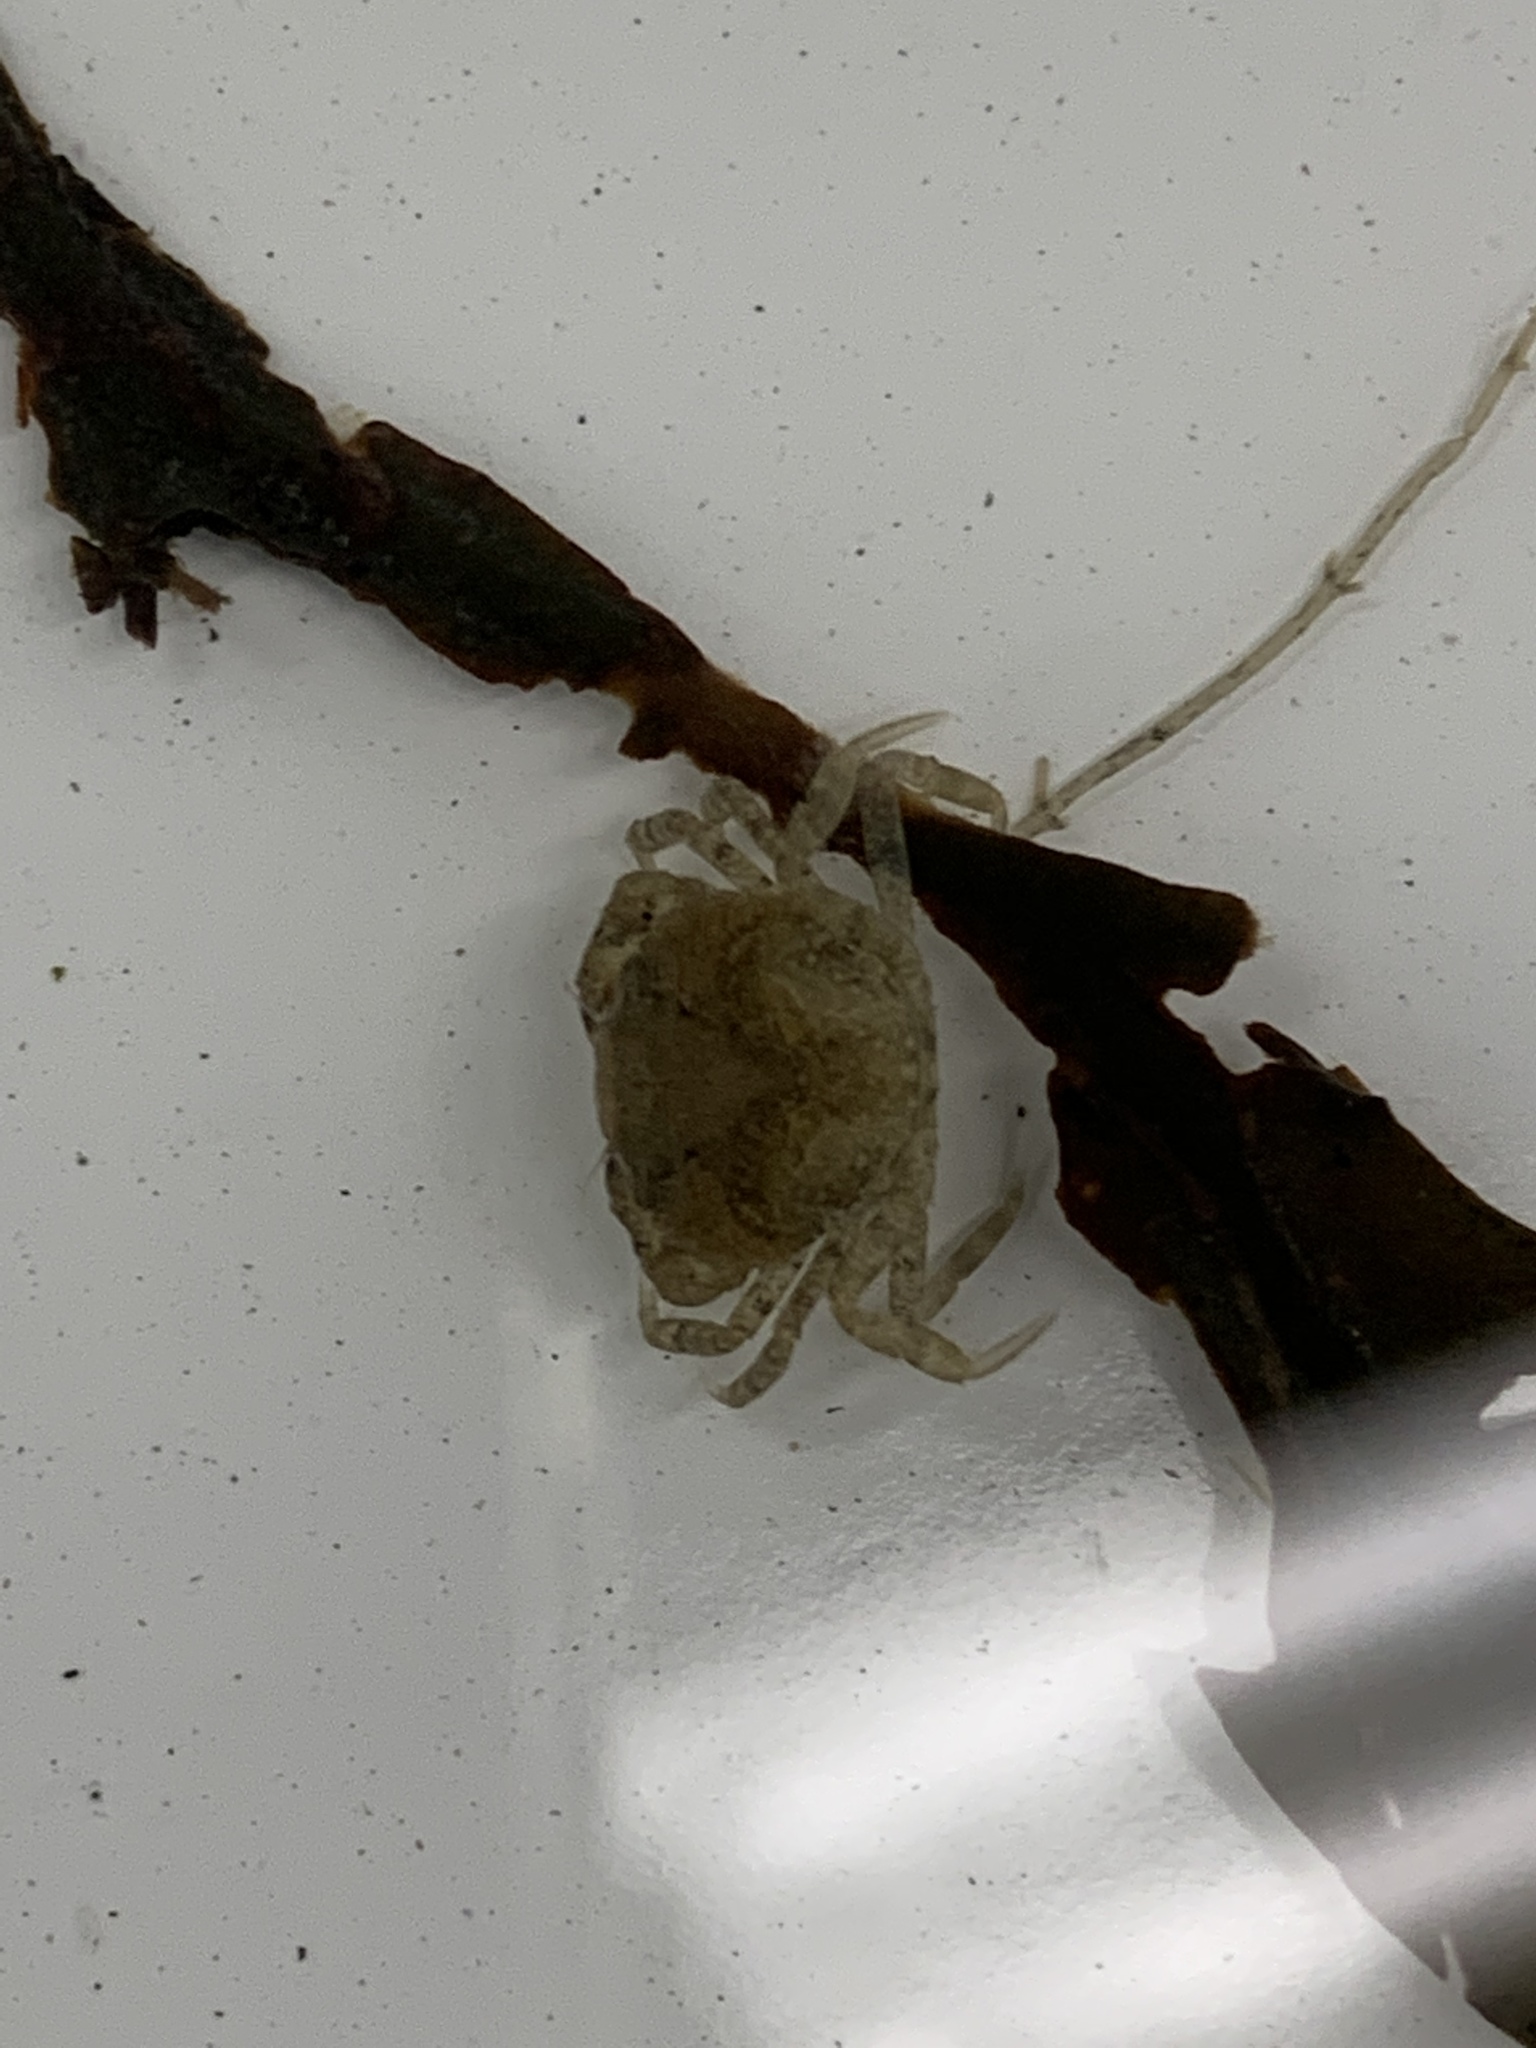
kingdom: Animalia
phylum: Arthropoda
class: Malacostraca
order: Decapoda
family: Carcinidae
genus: Carcinus
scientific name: Carcinus maenas
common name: European green crab
